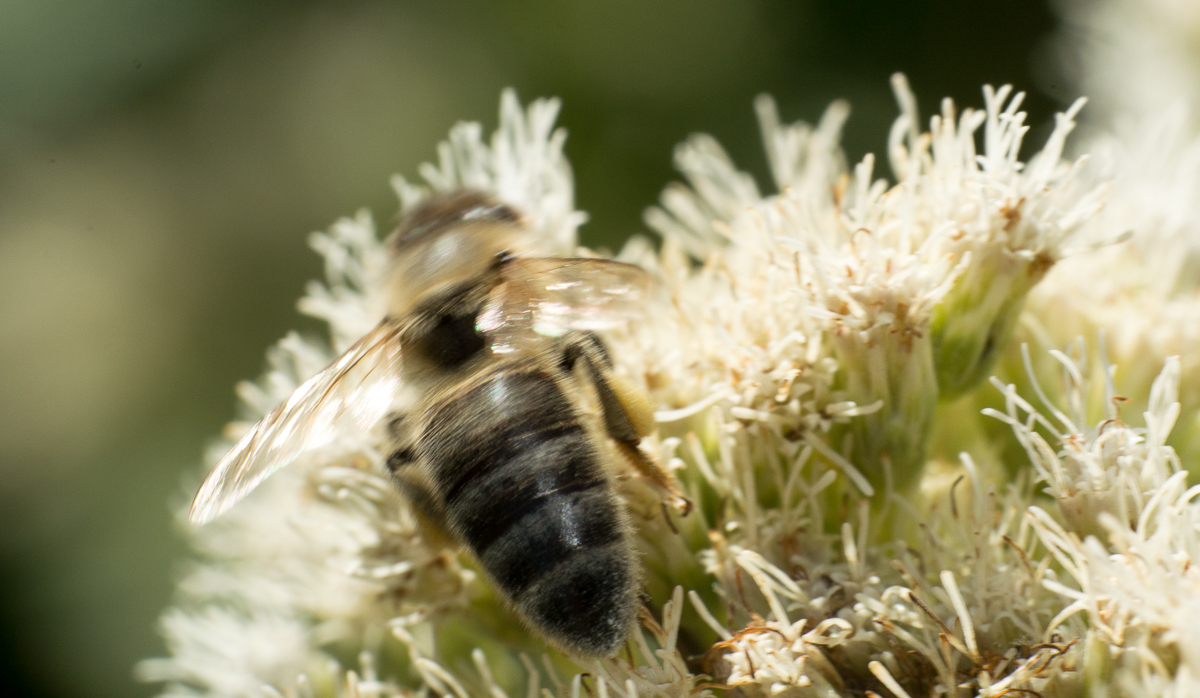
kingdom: Animalia
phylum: Arthropoda
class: Insecta
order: Hymenoptera
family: Apidae
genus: Apis
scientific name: Apis mellifera
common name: Honey bee
